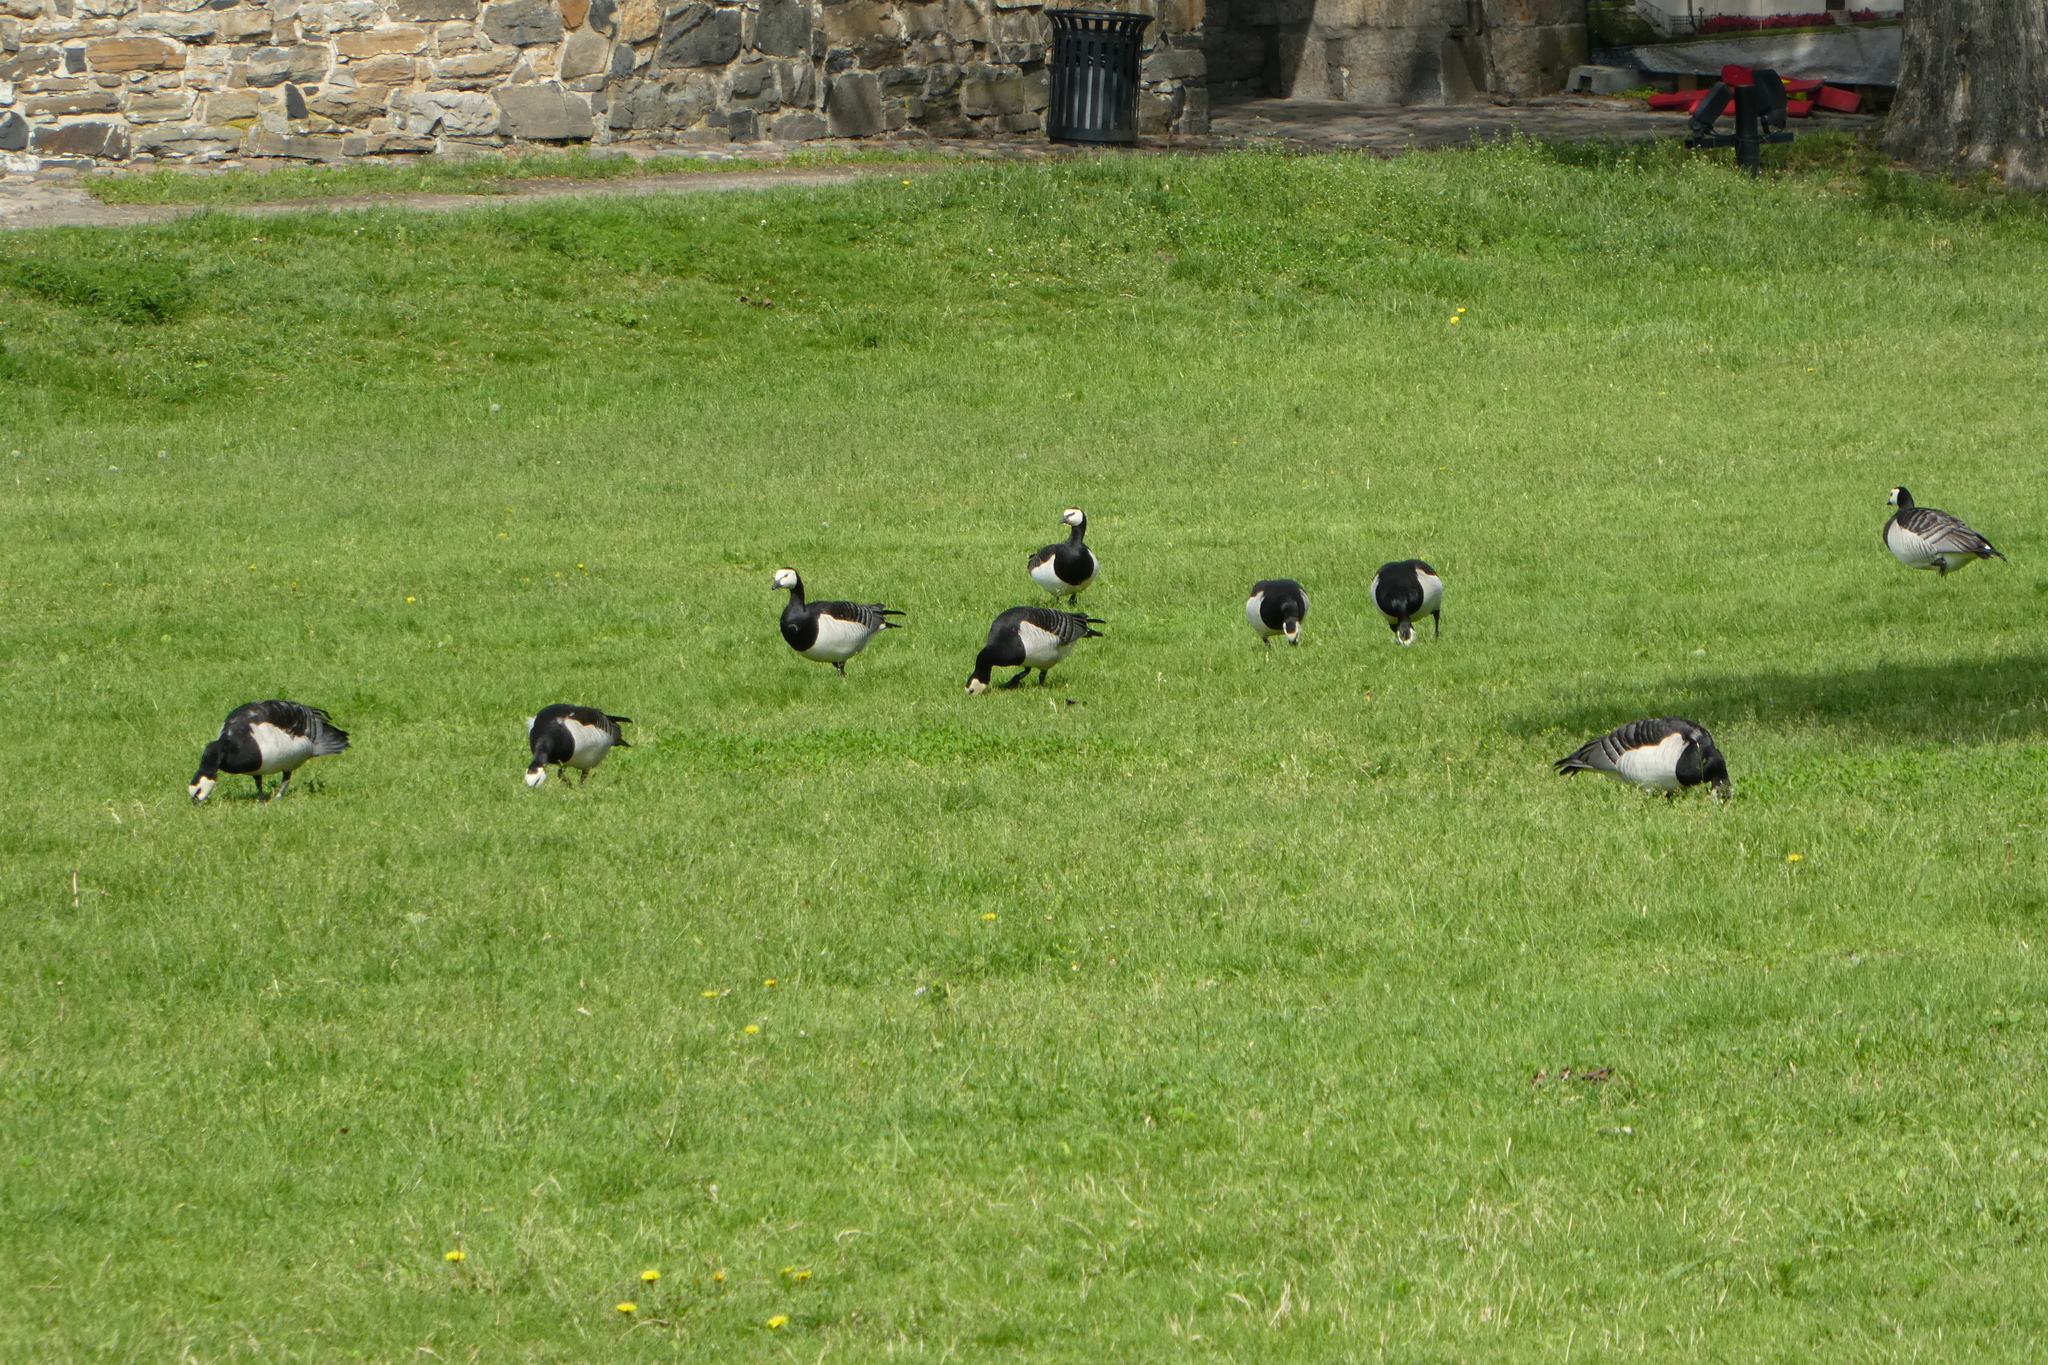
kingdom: Animalia
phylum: Chordata
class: Aves
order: Anseriformes
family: Anatidae
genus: Branta
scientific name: Branta leucopsis
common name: Barnacle goose
